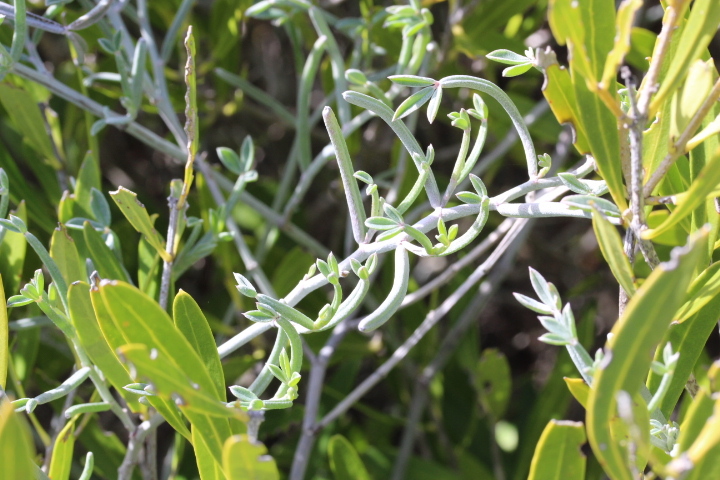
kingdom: Plantae
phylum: Tracheophyta
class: Magnoliopsida
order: Fabales
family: Fabaceae
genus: Indigofera
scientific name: Indigofera
